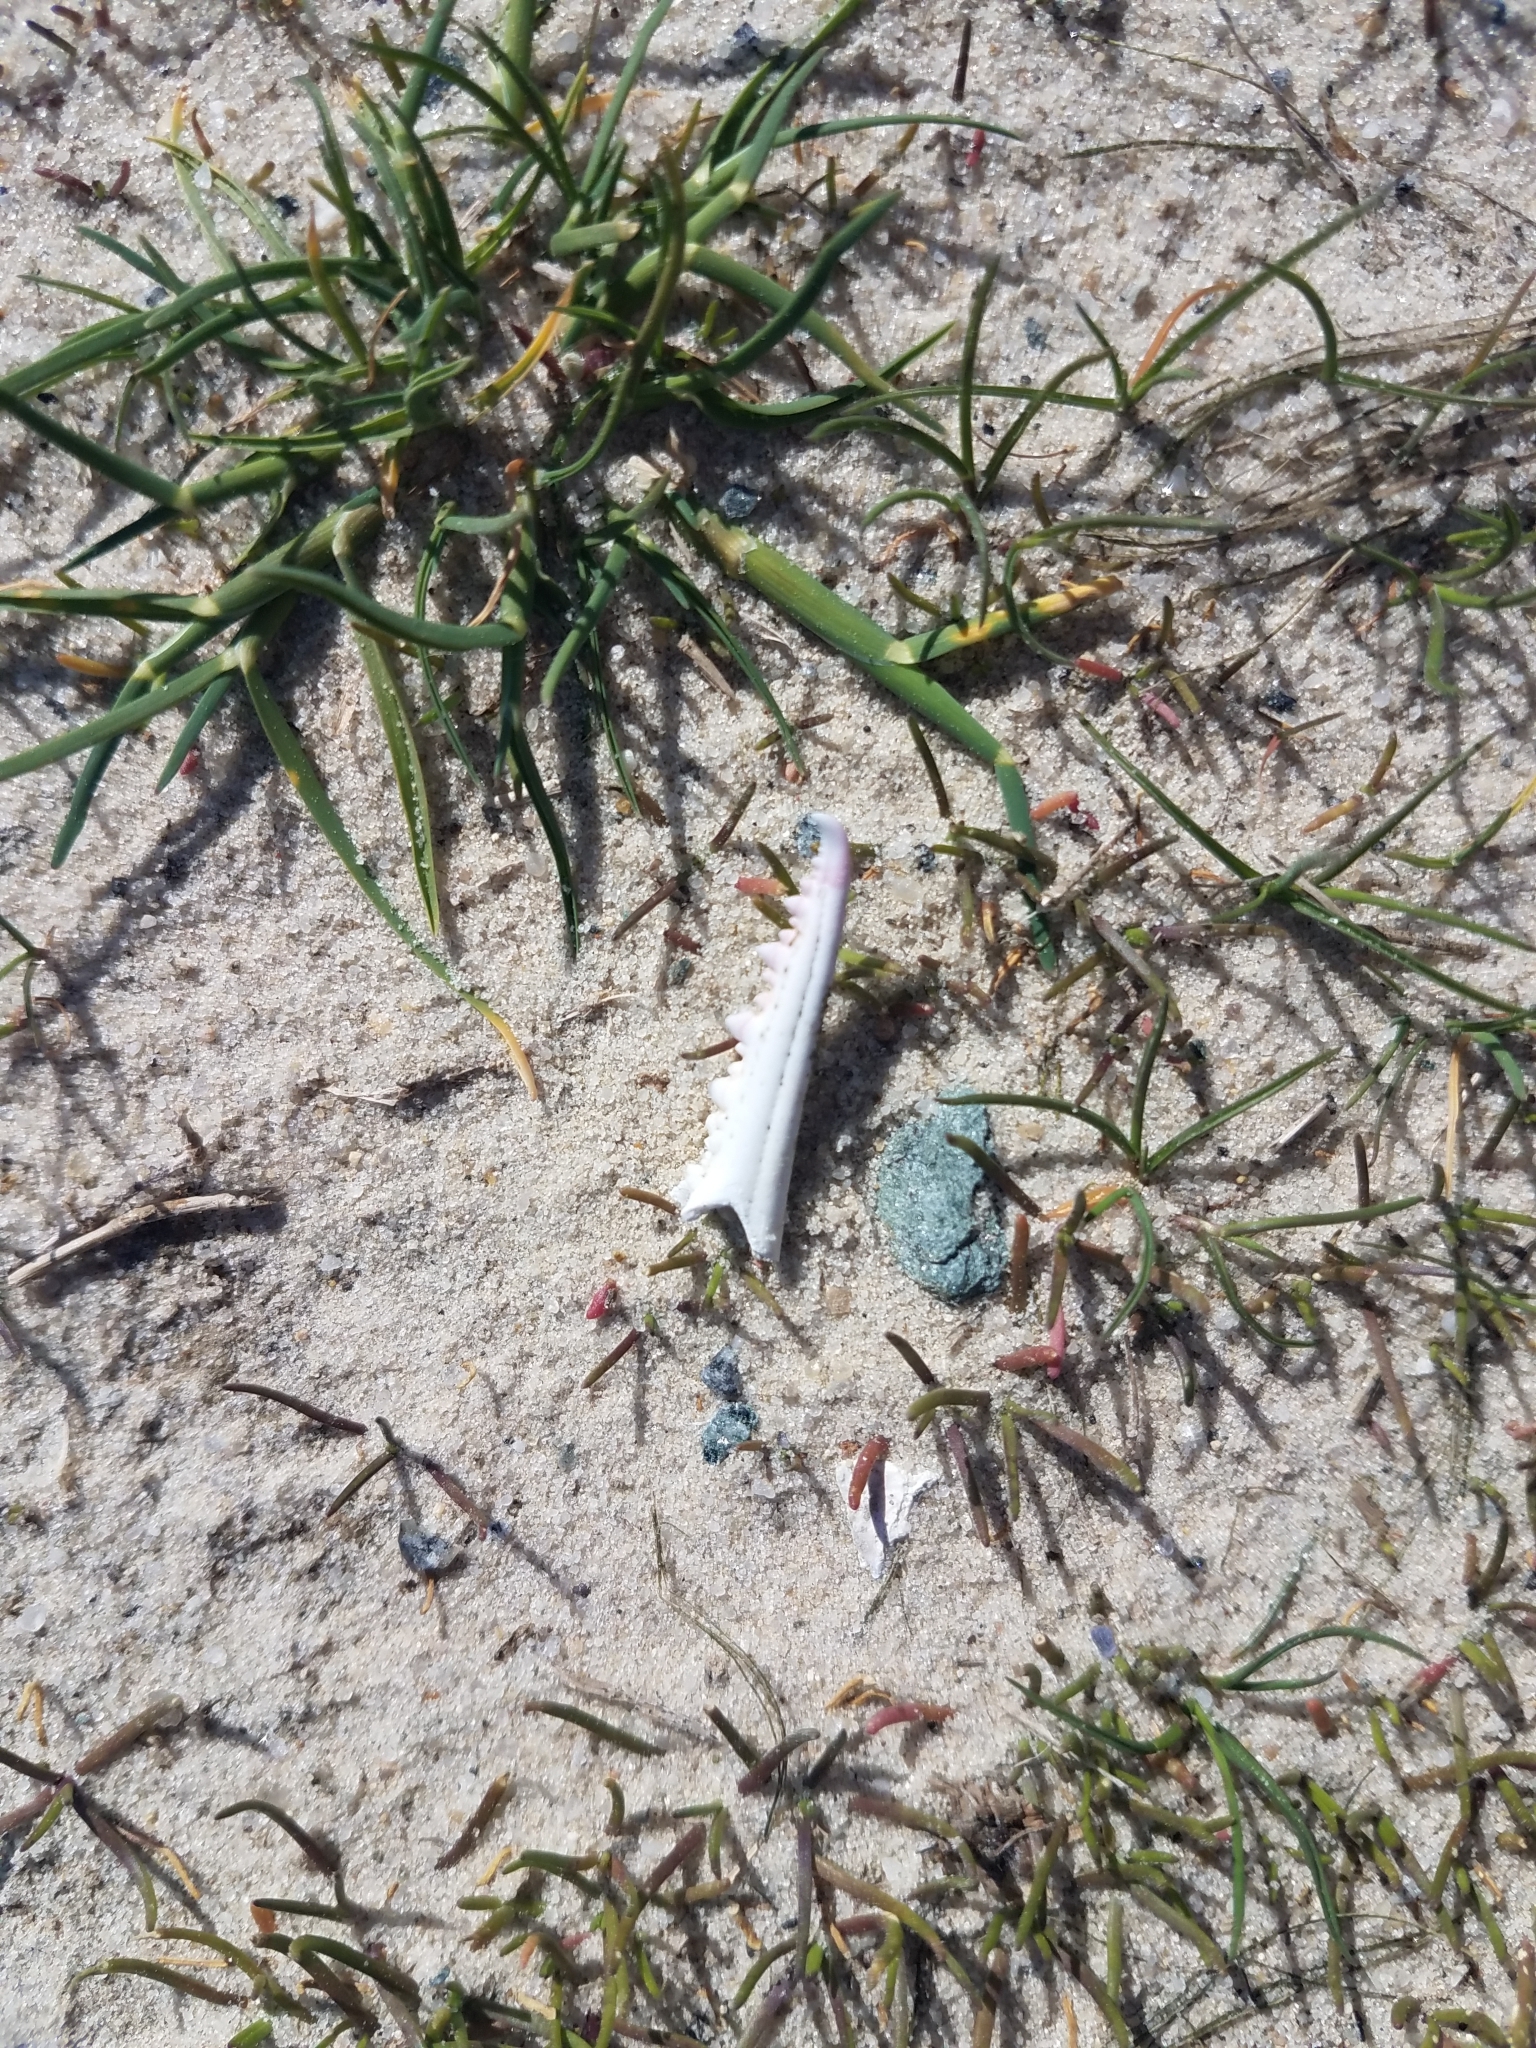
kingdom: Animalia
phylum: Arthropoda
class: Malacostraca
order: Decapoda
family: Portunidae
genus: Callinectes
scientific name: Callinectes sapidus
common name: Blue crab
